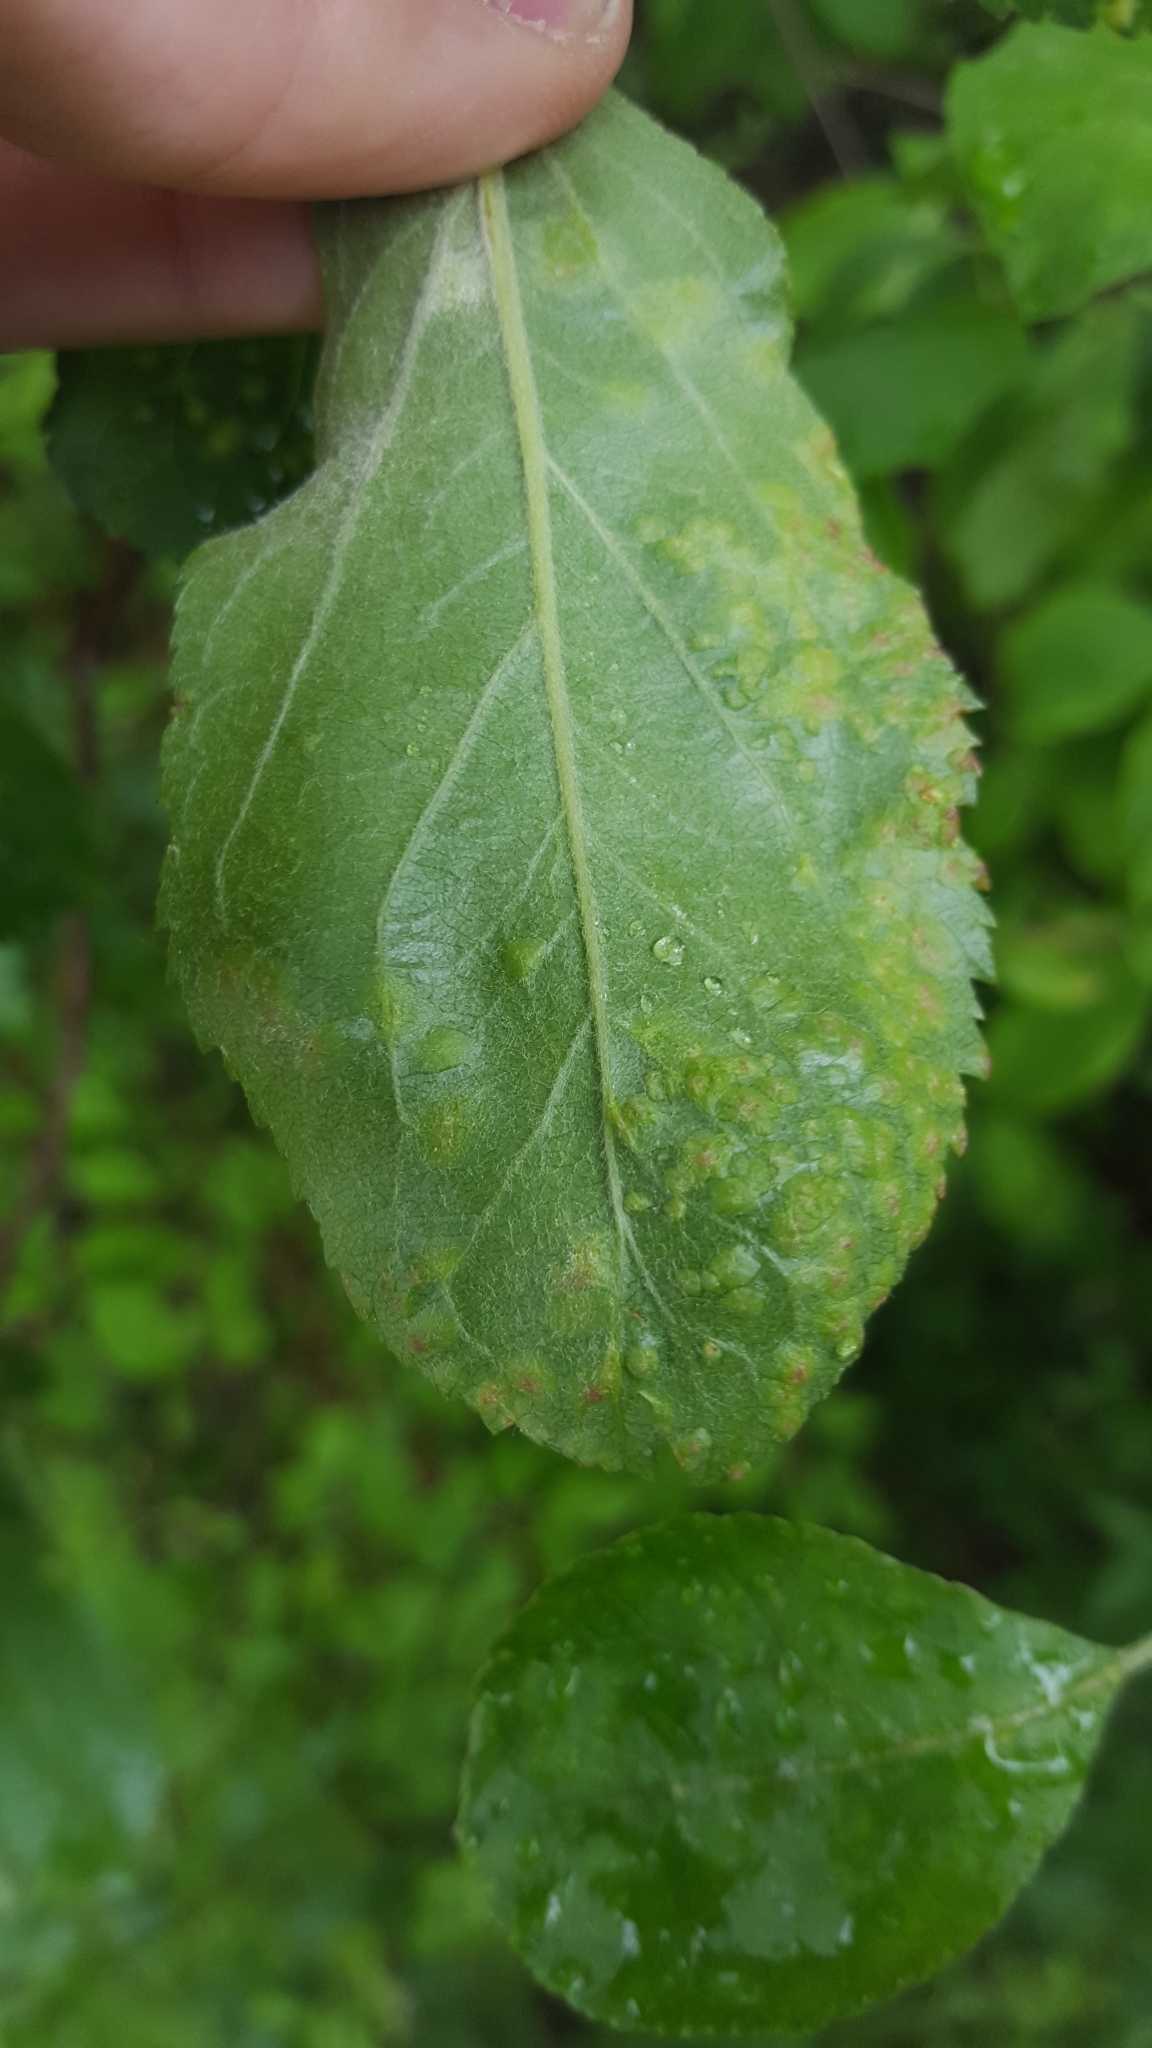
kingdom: Animalia
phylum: Arthropoda
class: Arachnida
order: Trombidiformes
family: Eriophyidae
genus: Eriophyes
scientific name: Eriophyes mali
